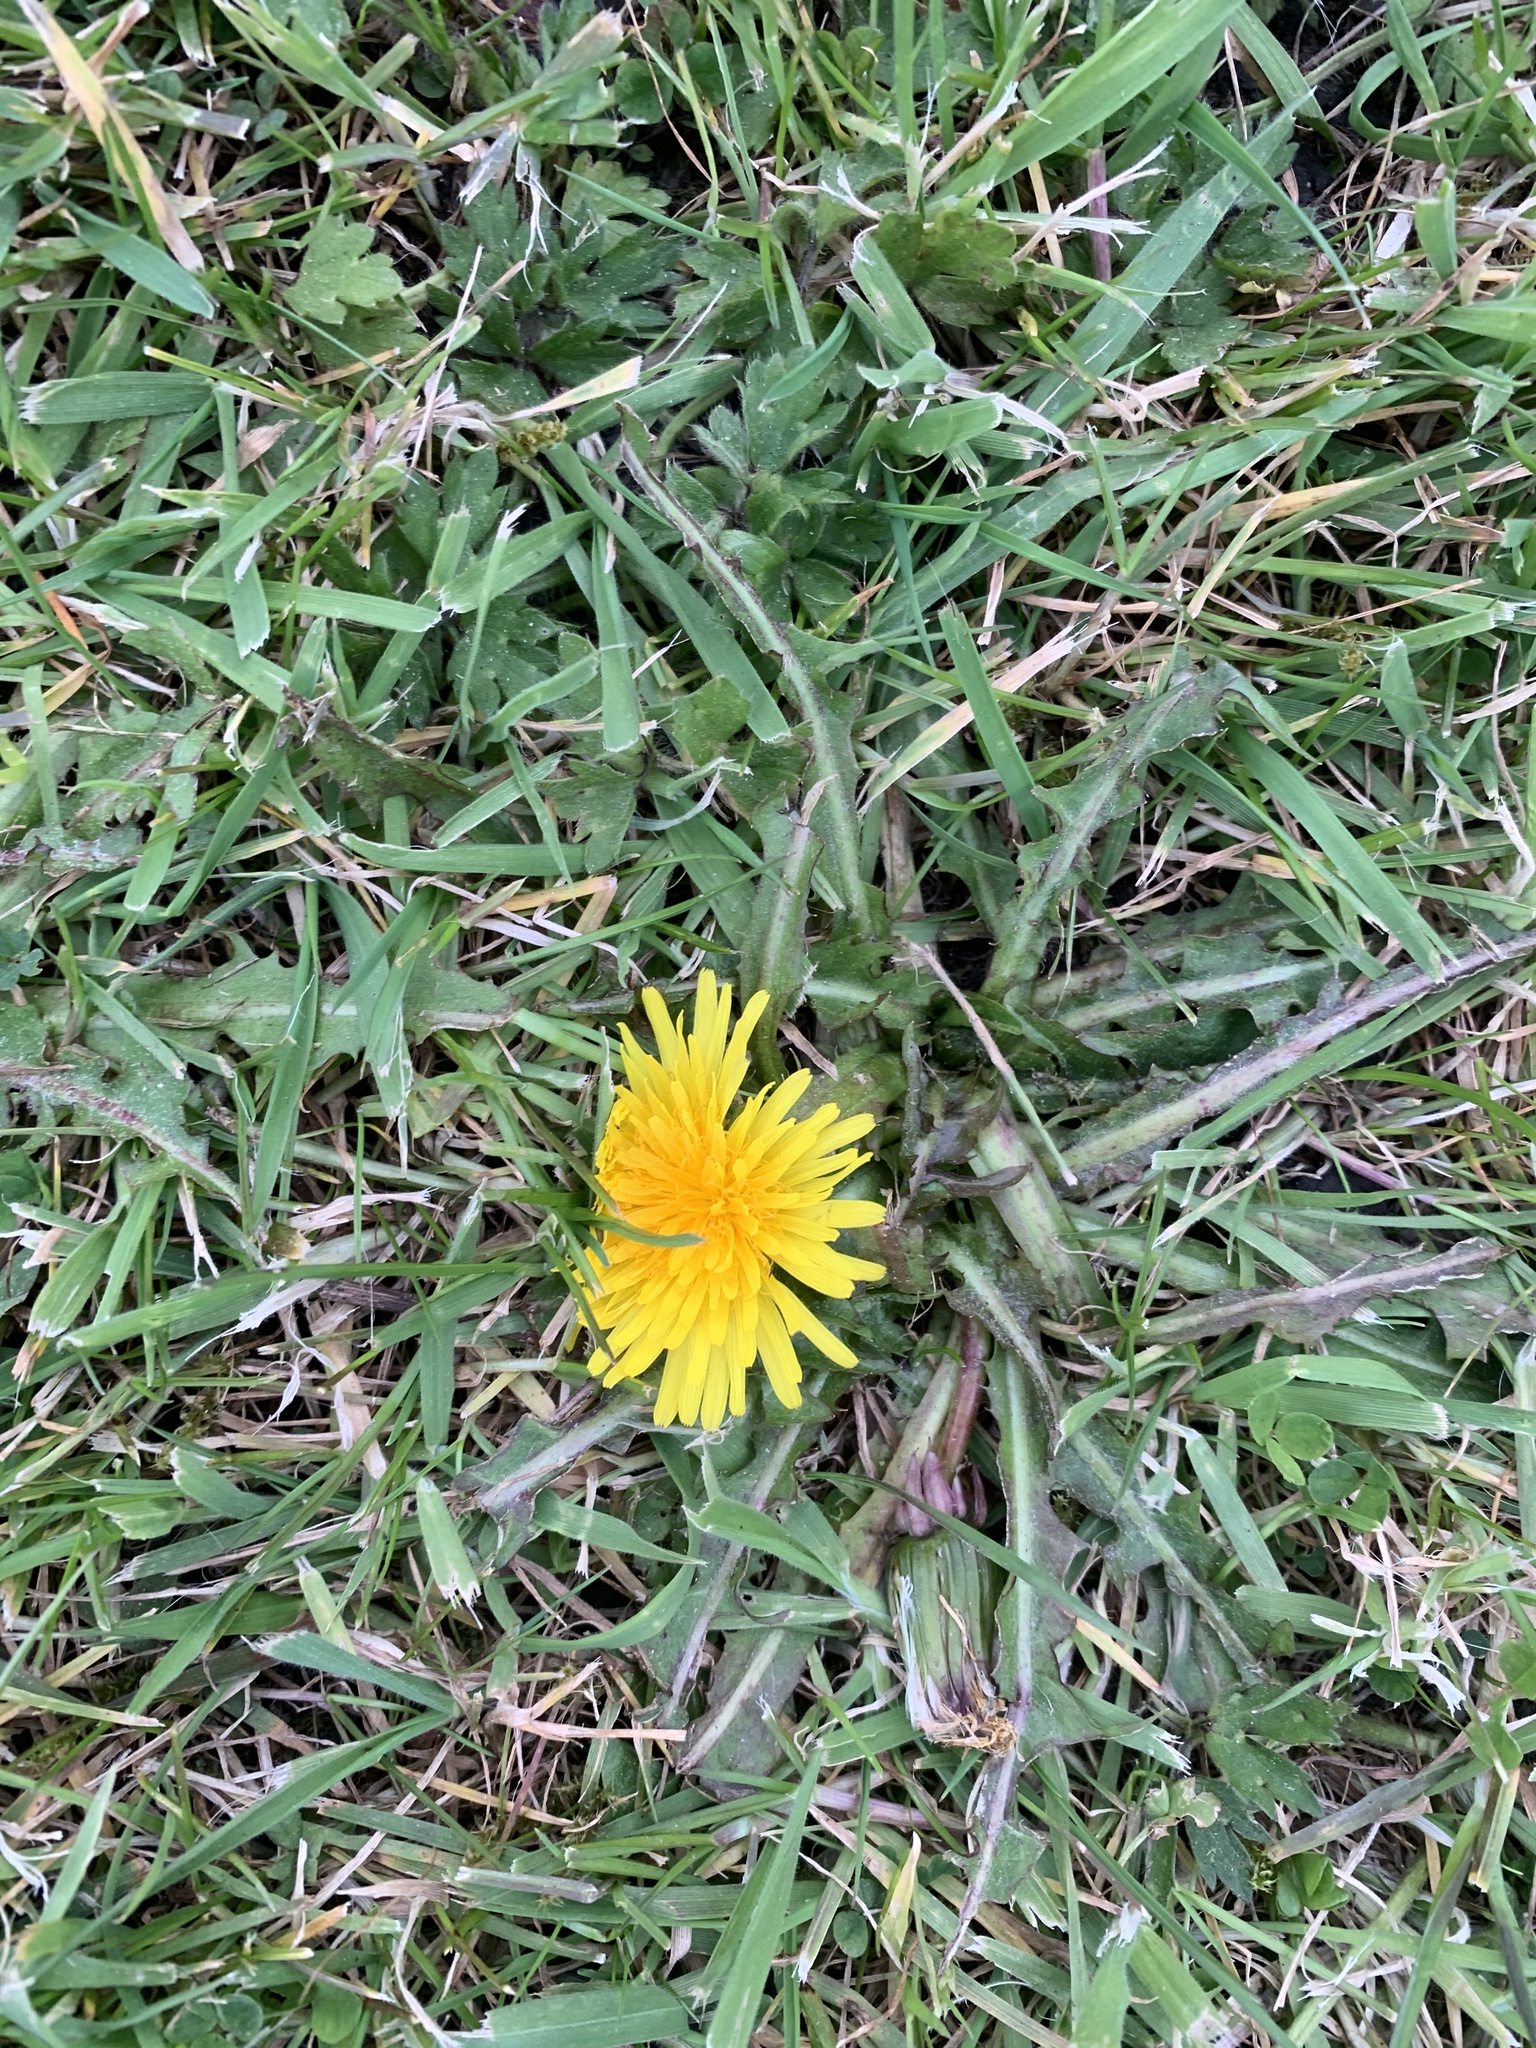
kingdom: Plantae
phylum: Tracheophyta
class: Magnoliopsida
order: Asterales
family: Asteraceae
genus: Taraxacum
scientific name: Taraxacum officinale
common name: Common dandelion
